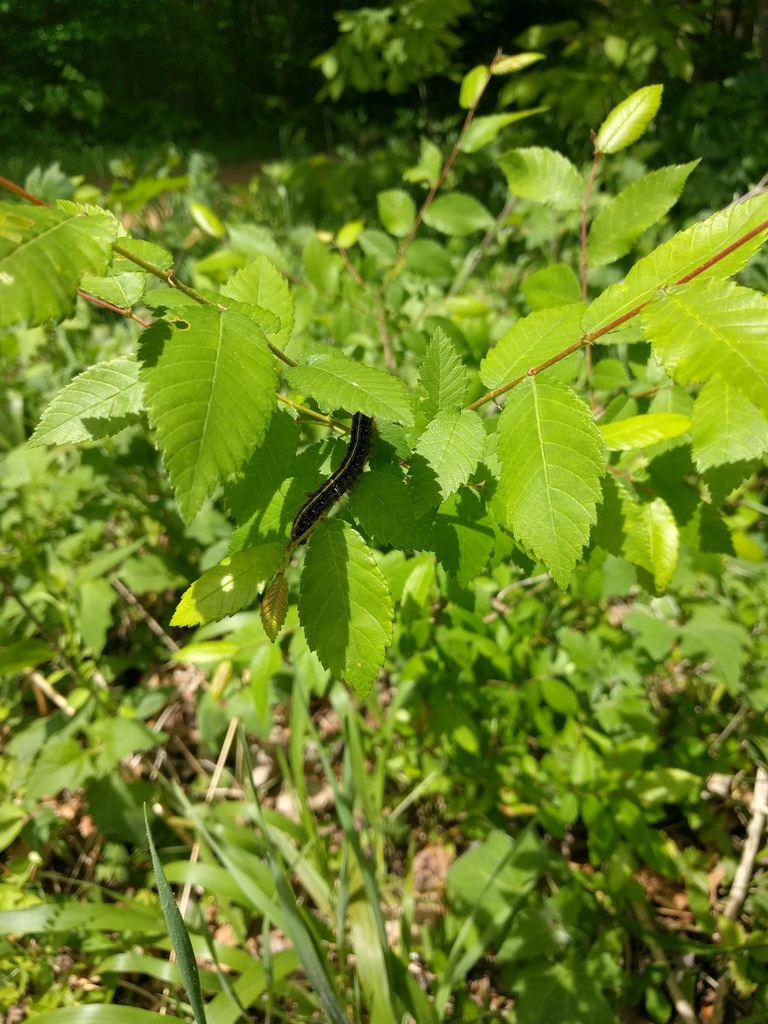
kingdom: Animalia
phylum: Arthropoda
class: Insecta
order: Lepidoptera
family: Lasiocampidae
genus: Malacosoma
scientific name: Malacosoma americana
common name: Eastern tent caterpillar moth
